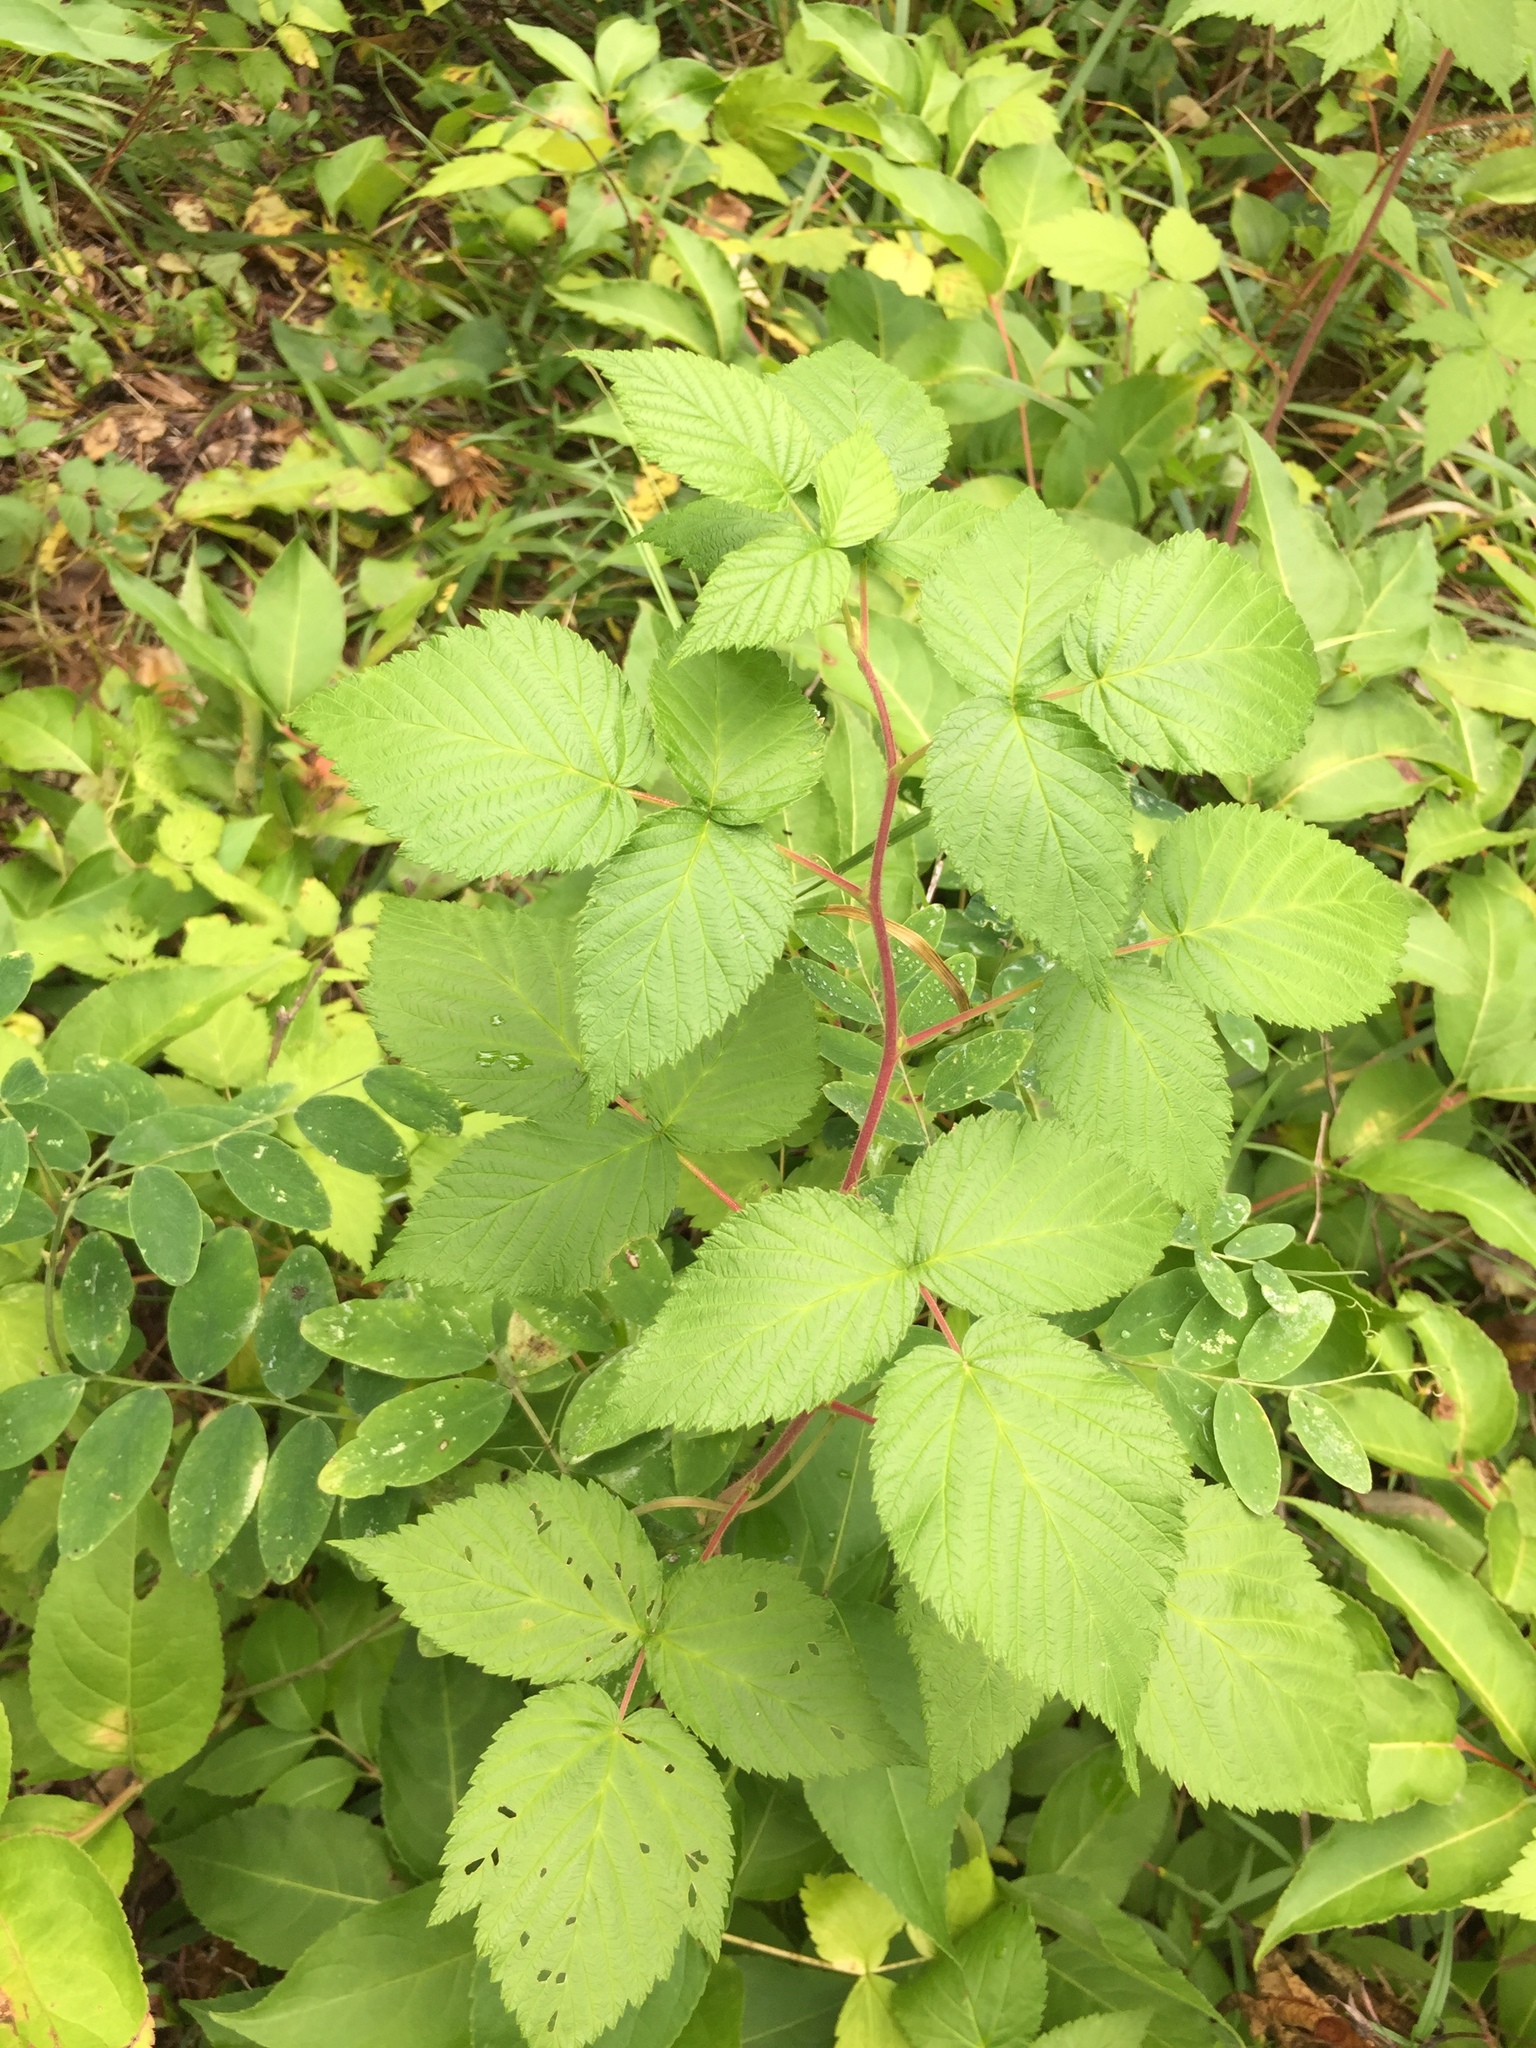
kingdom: Plantae
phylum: Tracheophyta
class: Magnoliopsida
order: Rosales
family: Rosaceae
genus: Rubus
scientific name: Rubus idaeus
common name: Raspberry
